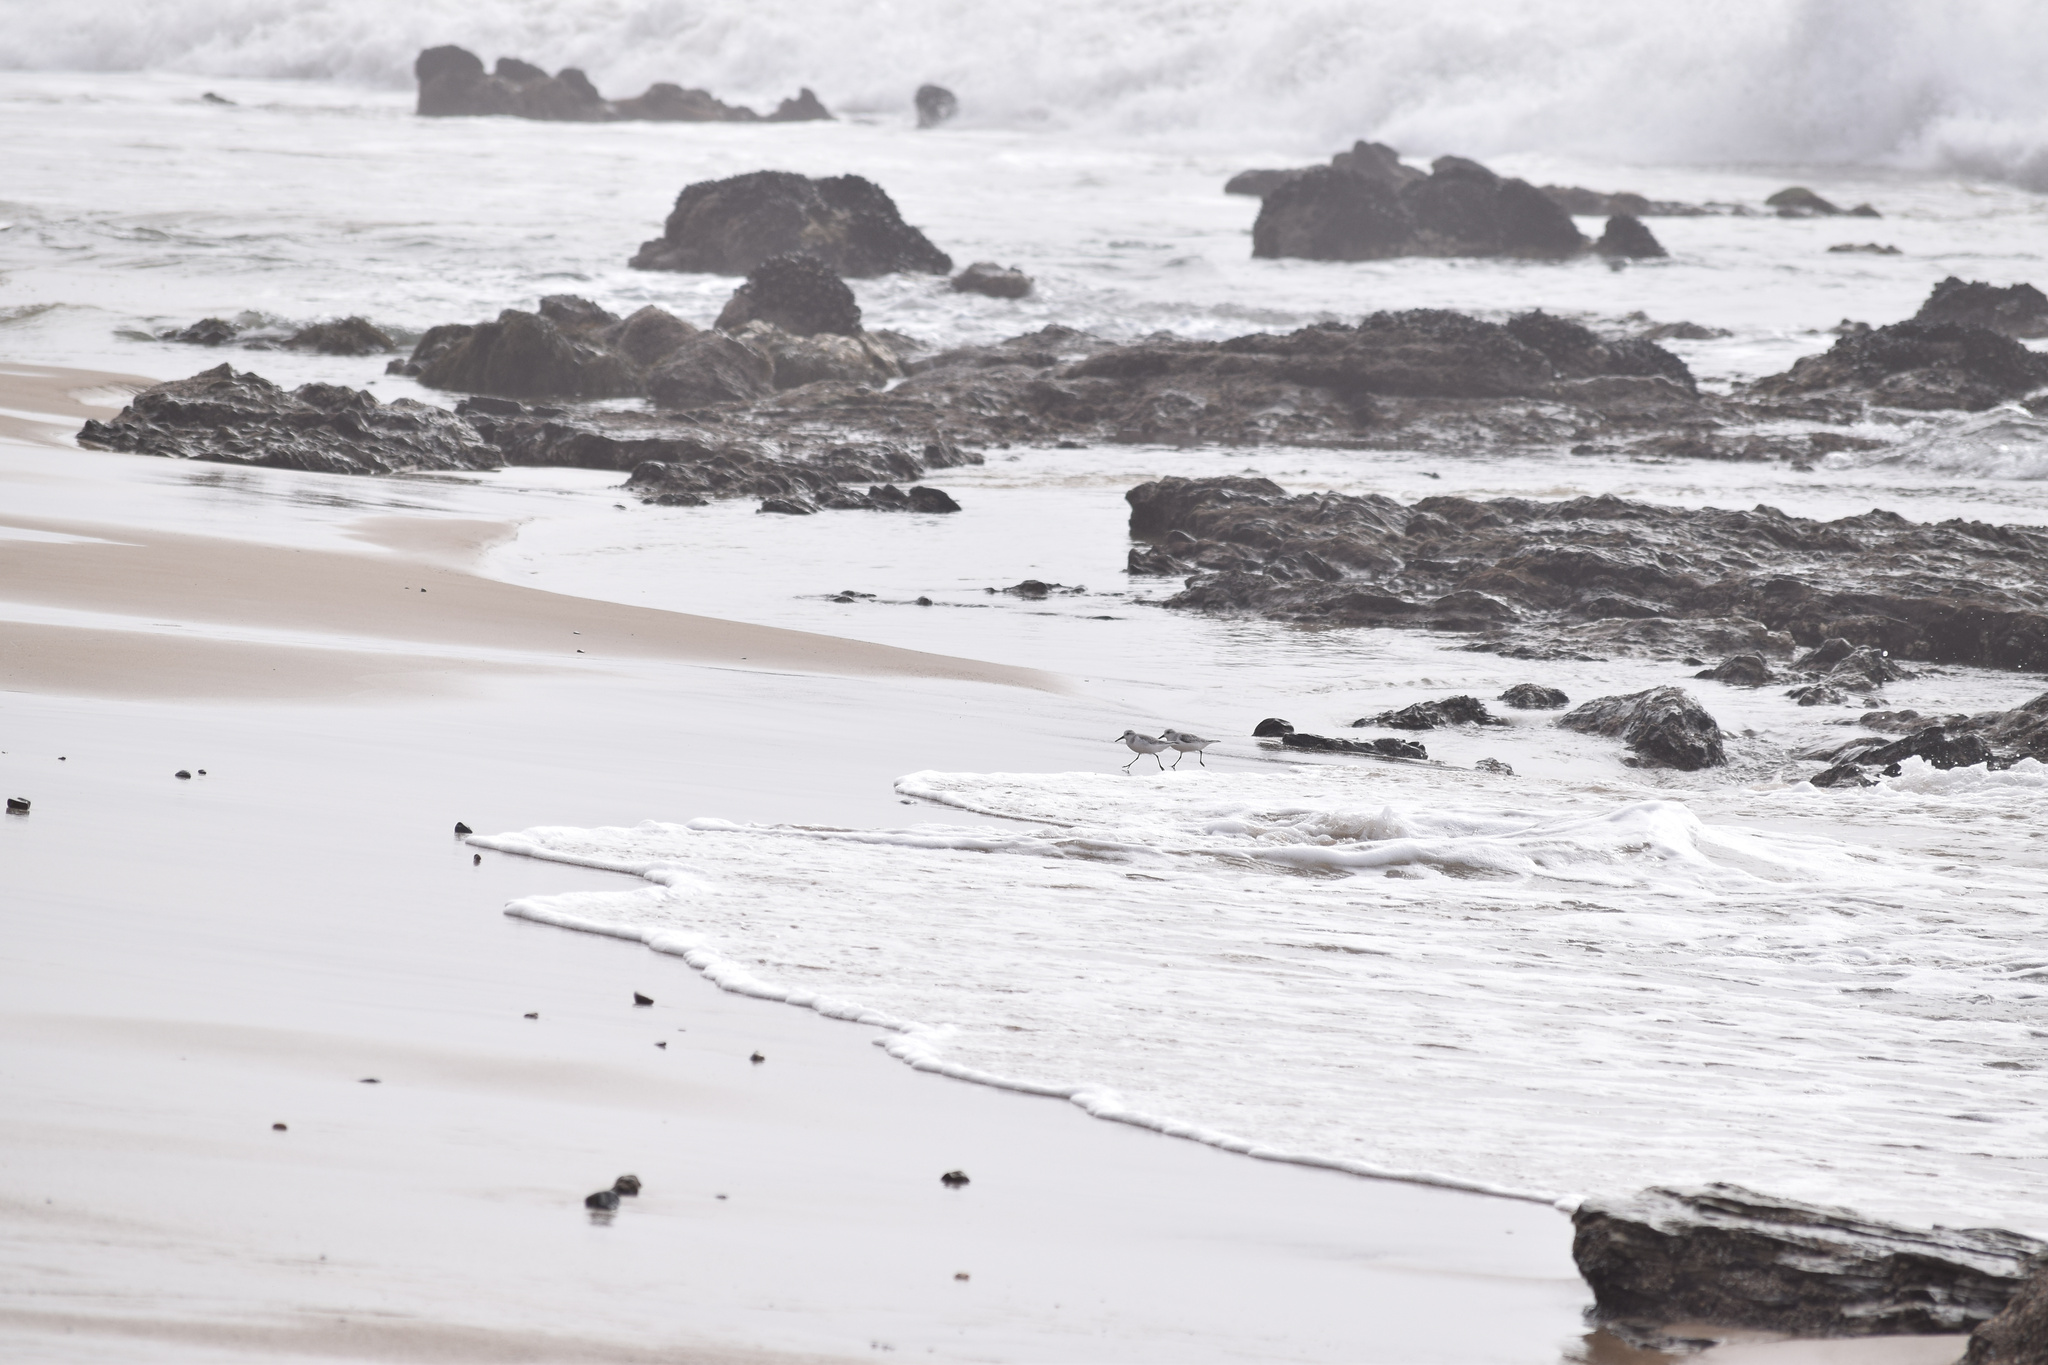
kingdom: Animalia
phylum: Chordata
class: Aves
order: Charadriiformes
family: Scolopacidae
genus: Calidris
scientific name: Calidris alba
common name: Sanderling
